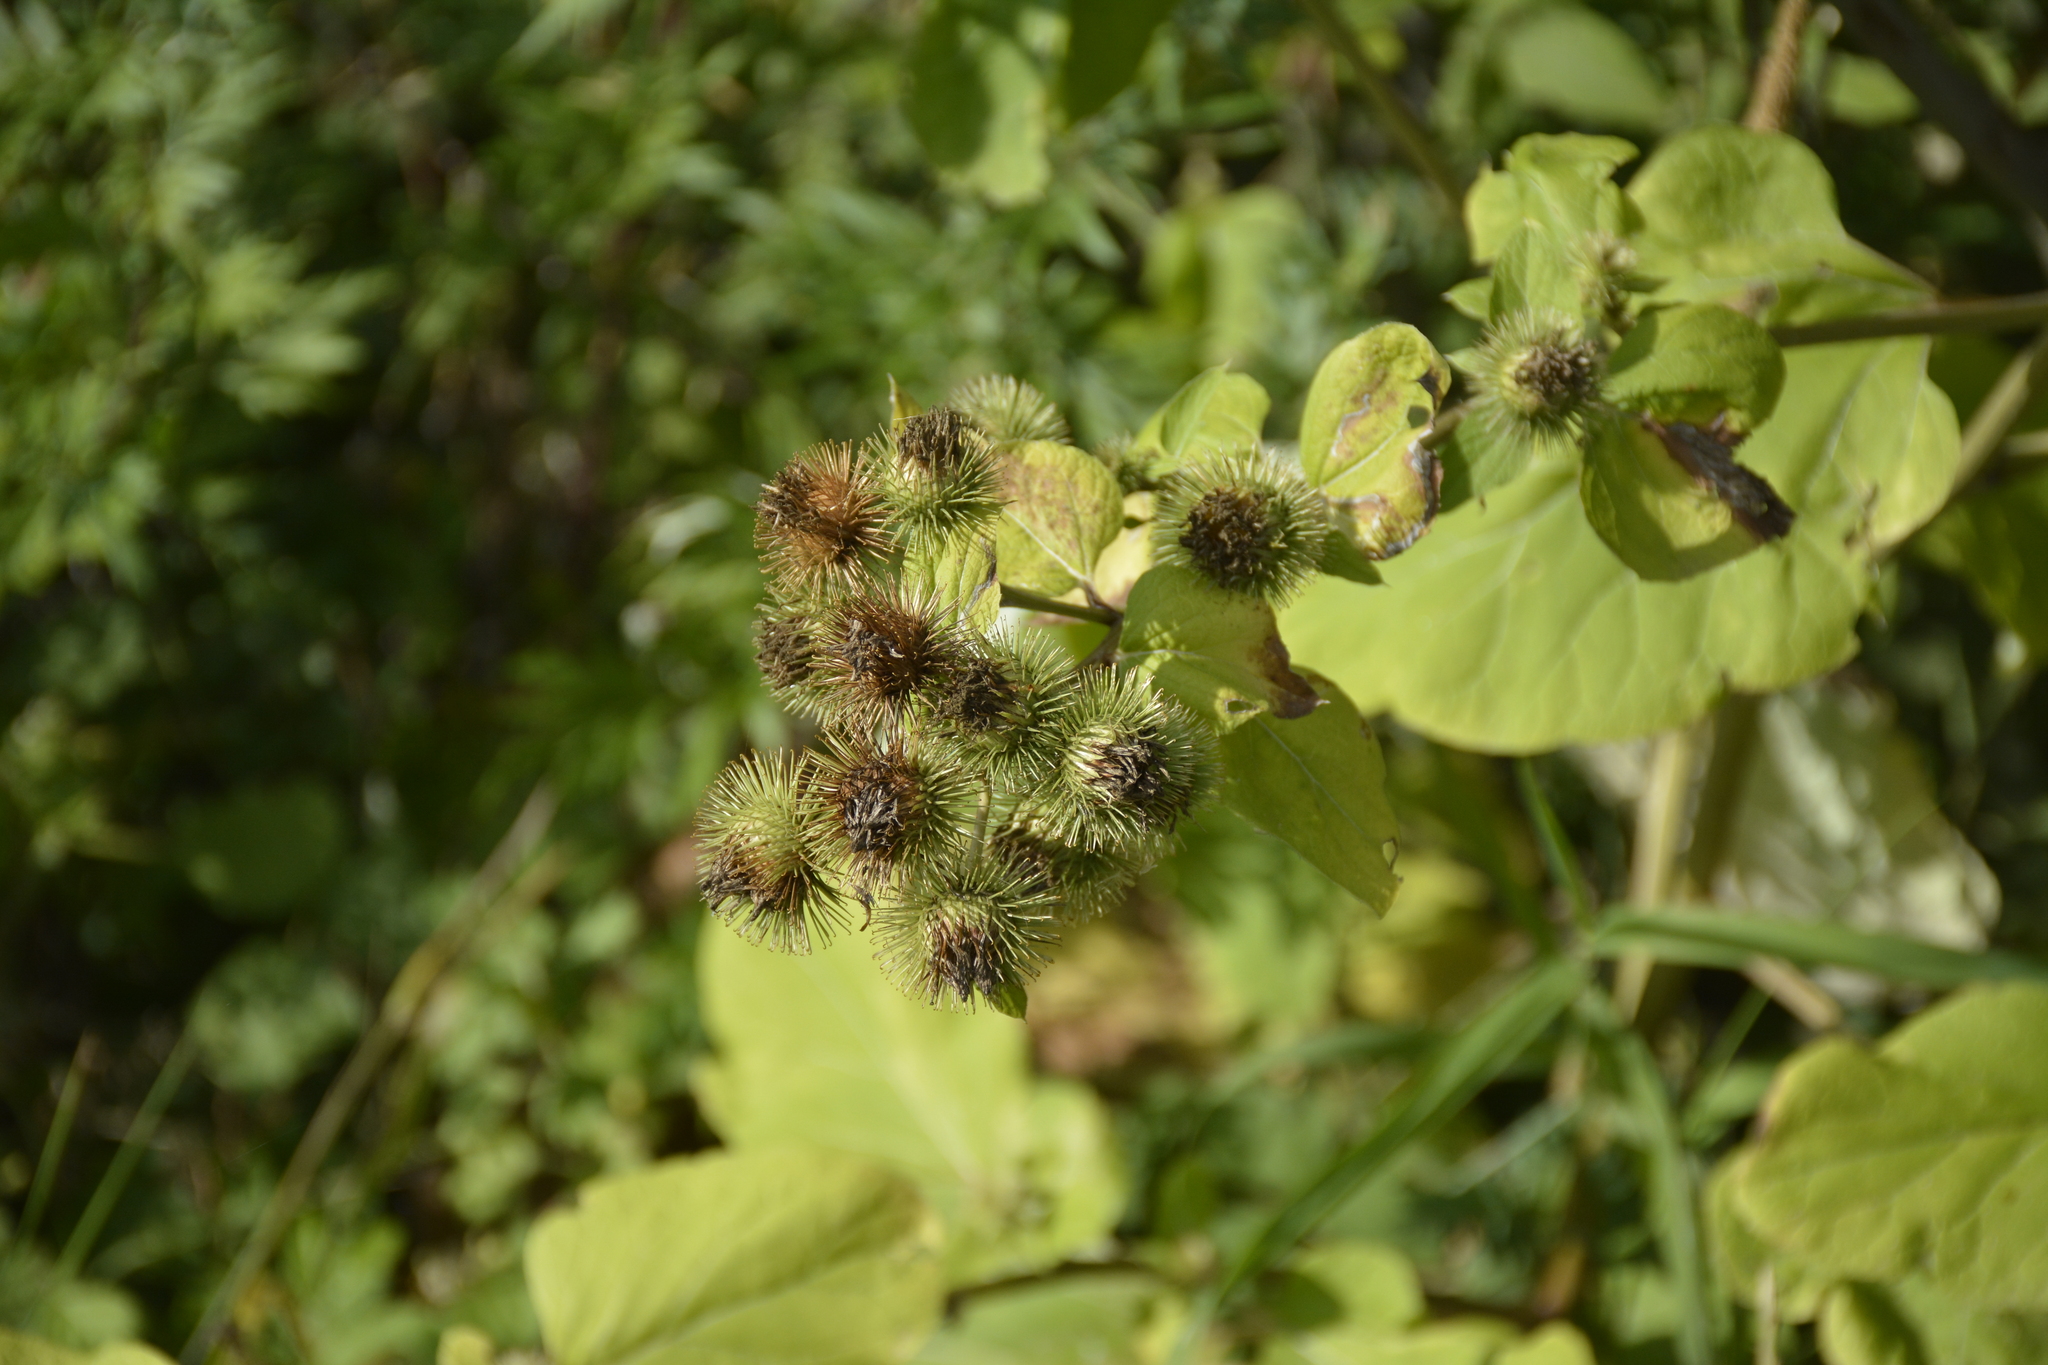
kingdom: Plantae
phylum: Tracheophyta
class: Magnoliopsida
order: Asterales
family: Asteraceae
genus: Arctium
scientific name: Arctium lappa
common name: Greater burdock
